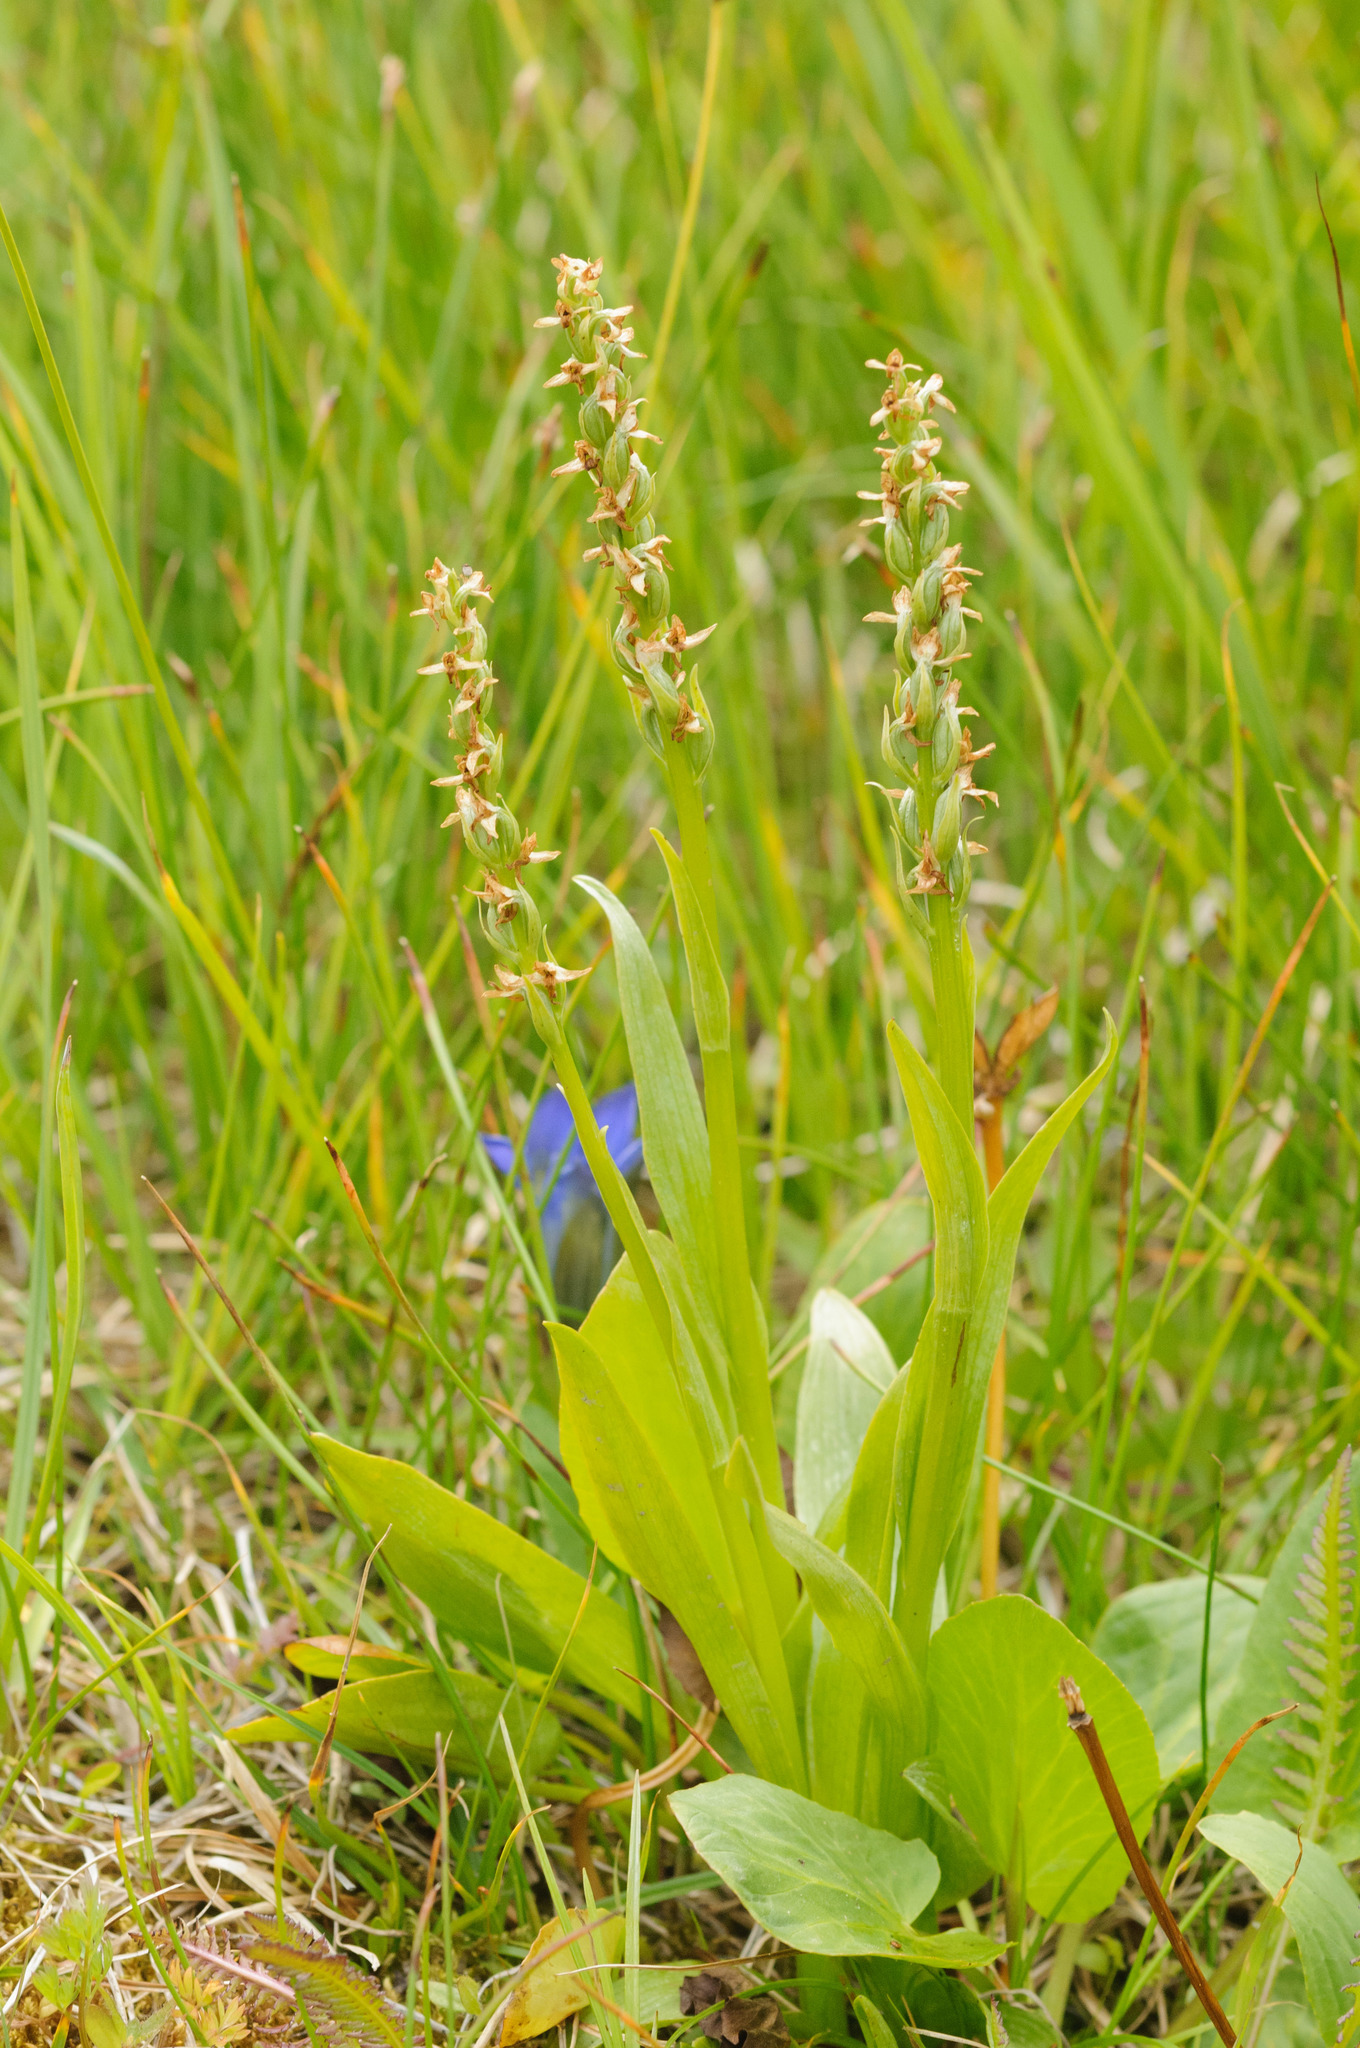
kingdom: Plantae
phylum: Tracheophyta
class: Liliopsida
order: Asparagales
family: Orchidaceae
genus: Platanthera
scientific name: Platanthera dilatata
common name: Bog candles
